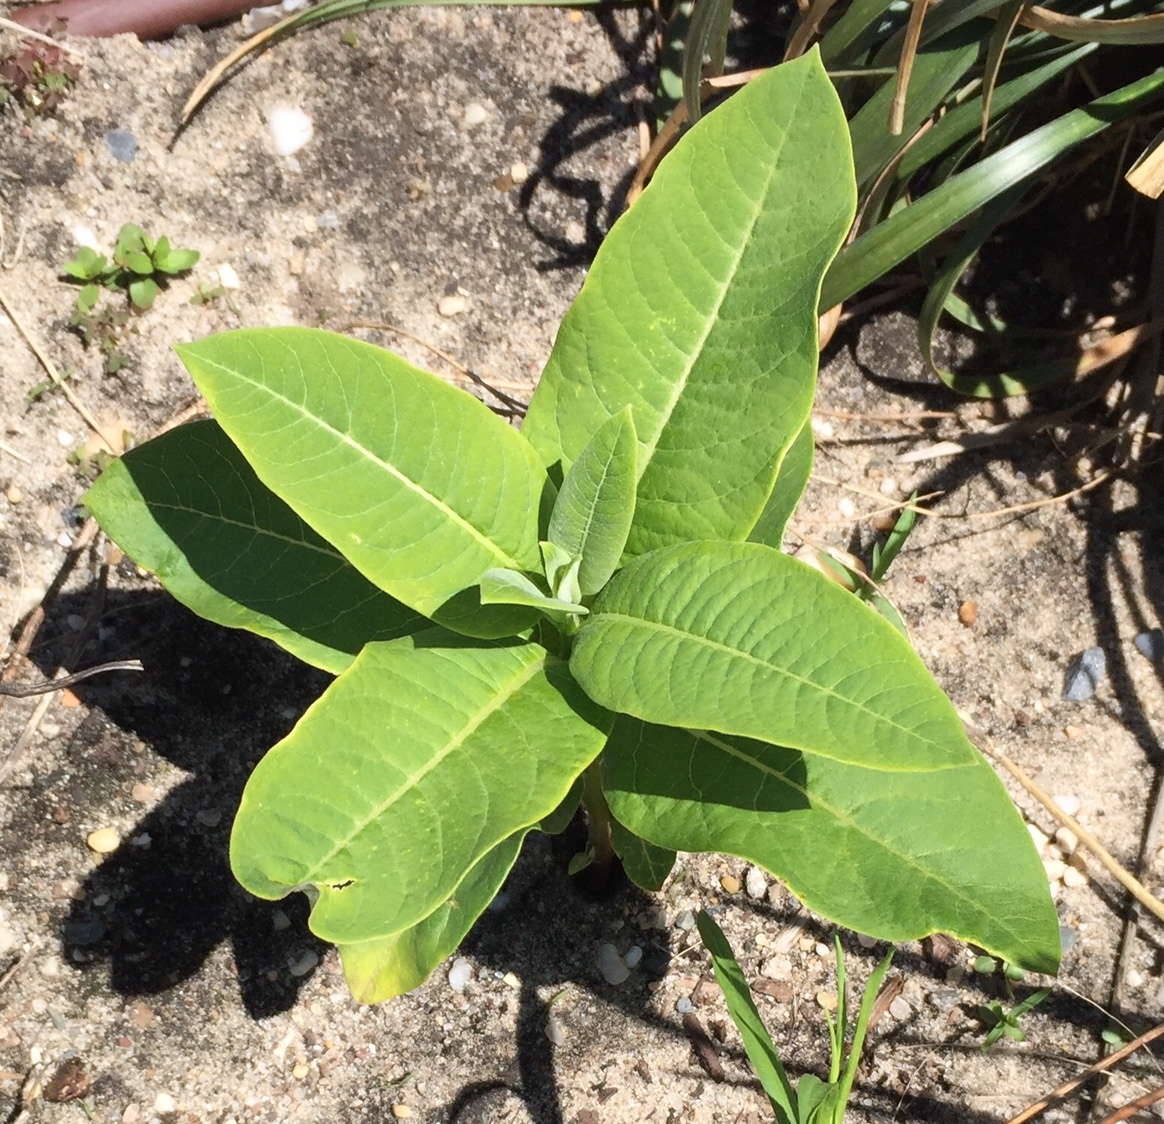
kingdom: Plantae
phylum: Tracheophyta
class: Magnoliopsida
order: Gentianales
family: Apocynaceae
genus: Asclepias
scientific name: Asclepias syriaca
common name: Common milkweed
